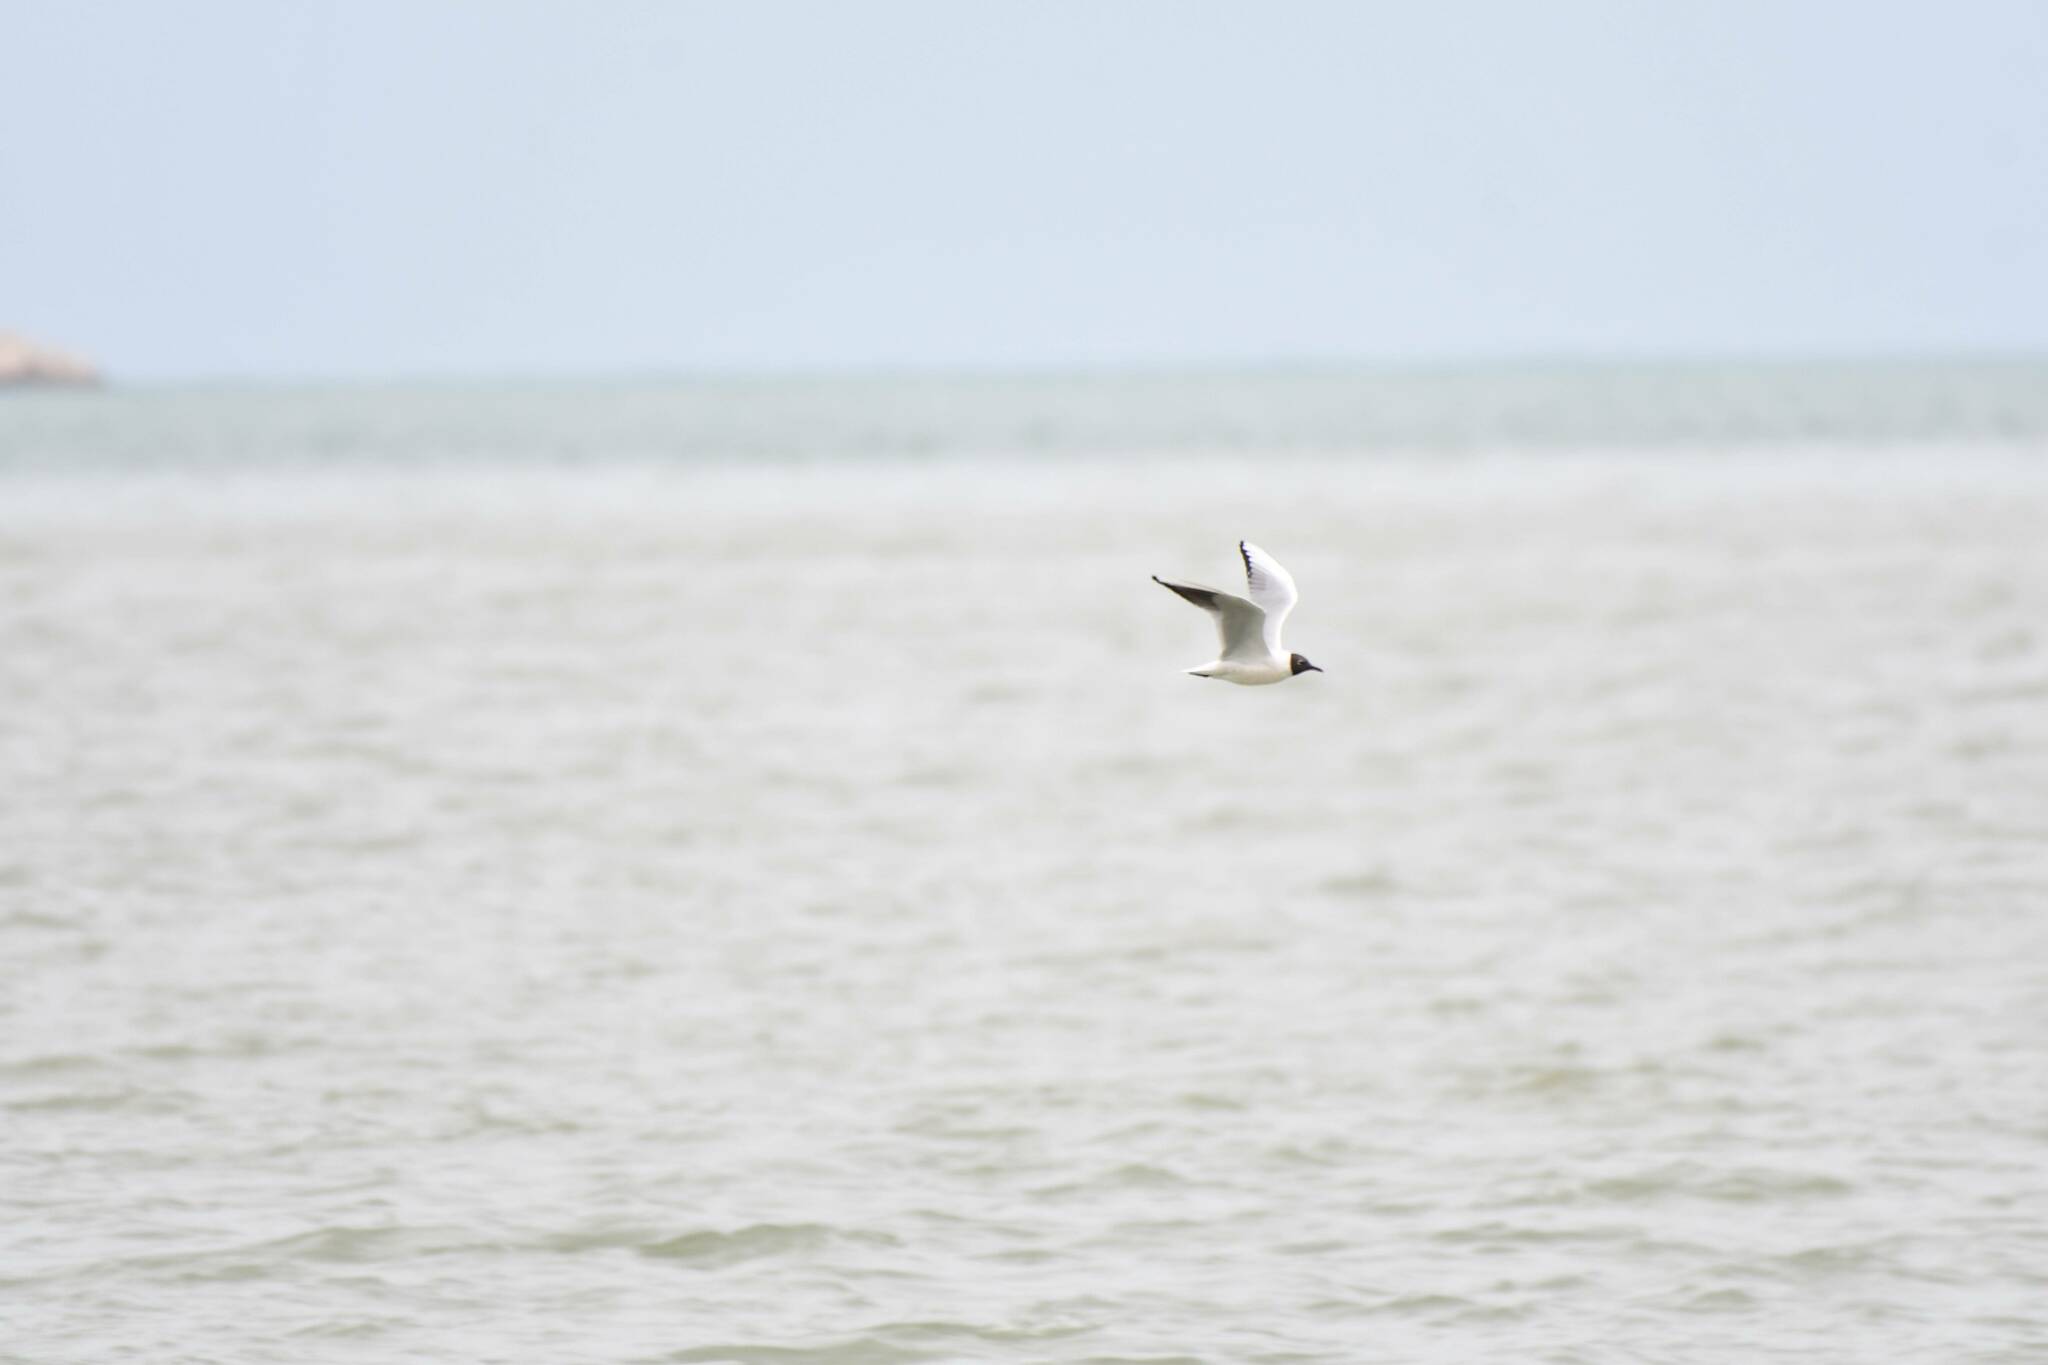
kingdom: Animalia
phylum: Chordata
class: Aves
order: Charadriiformes
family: Laridae
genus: Chroicocephalus
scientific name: Chroicocephalus ridibundus
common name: Black-headed gull
